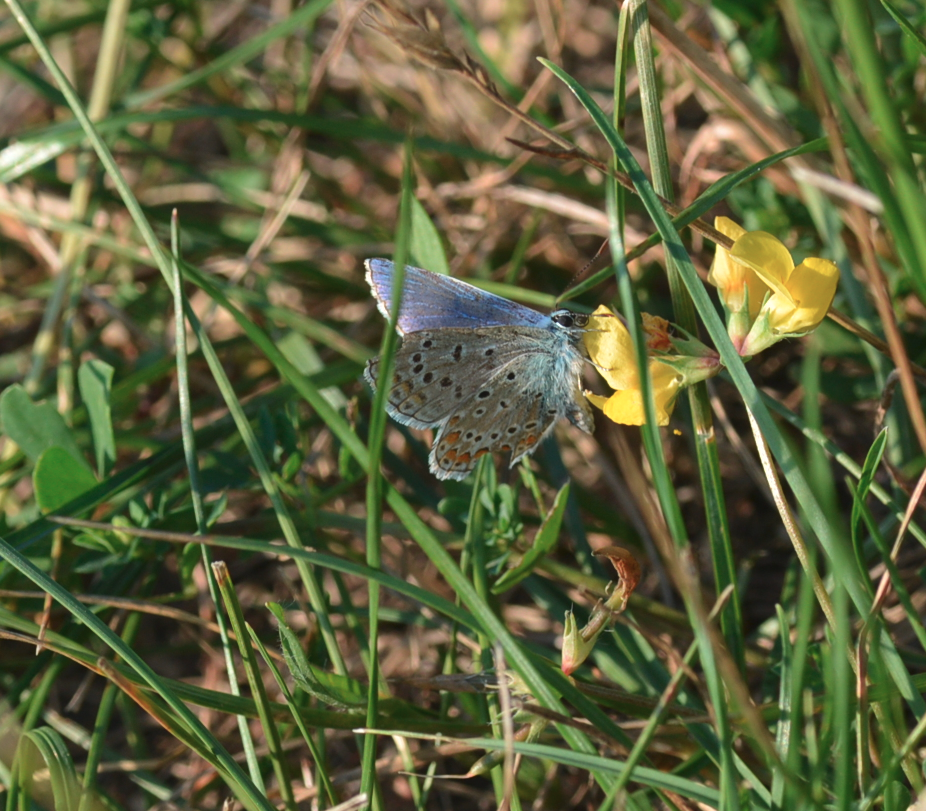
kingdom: Animalia
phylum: Arthropoda
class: Insecta
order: Lepidoptera
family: Lycaenidae
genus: Polyommatus
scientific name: Polyommatus icarus
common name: Common blue
